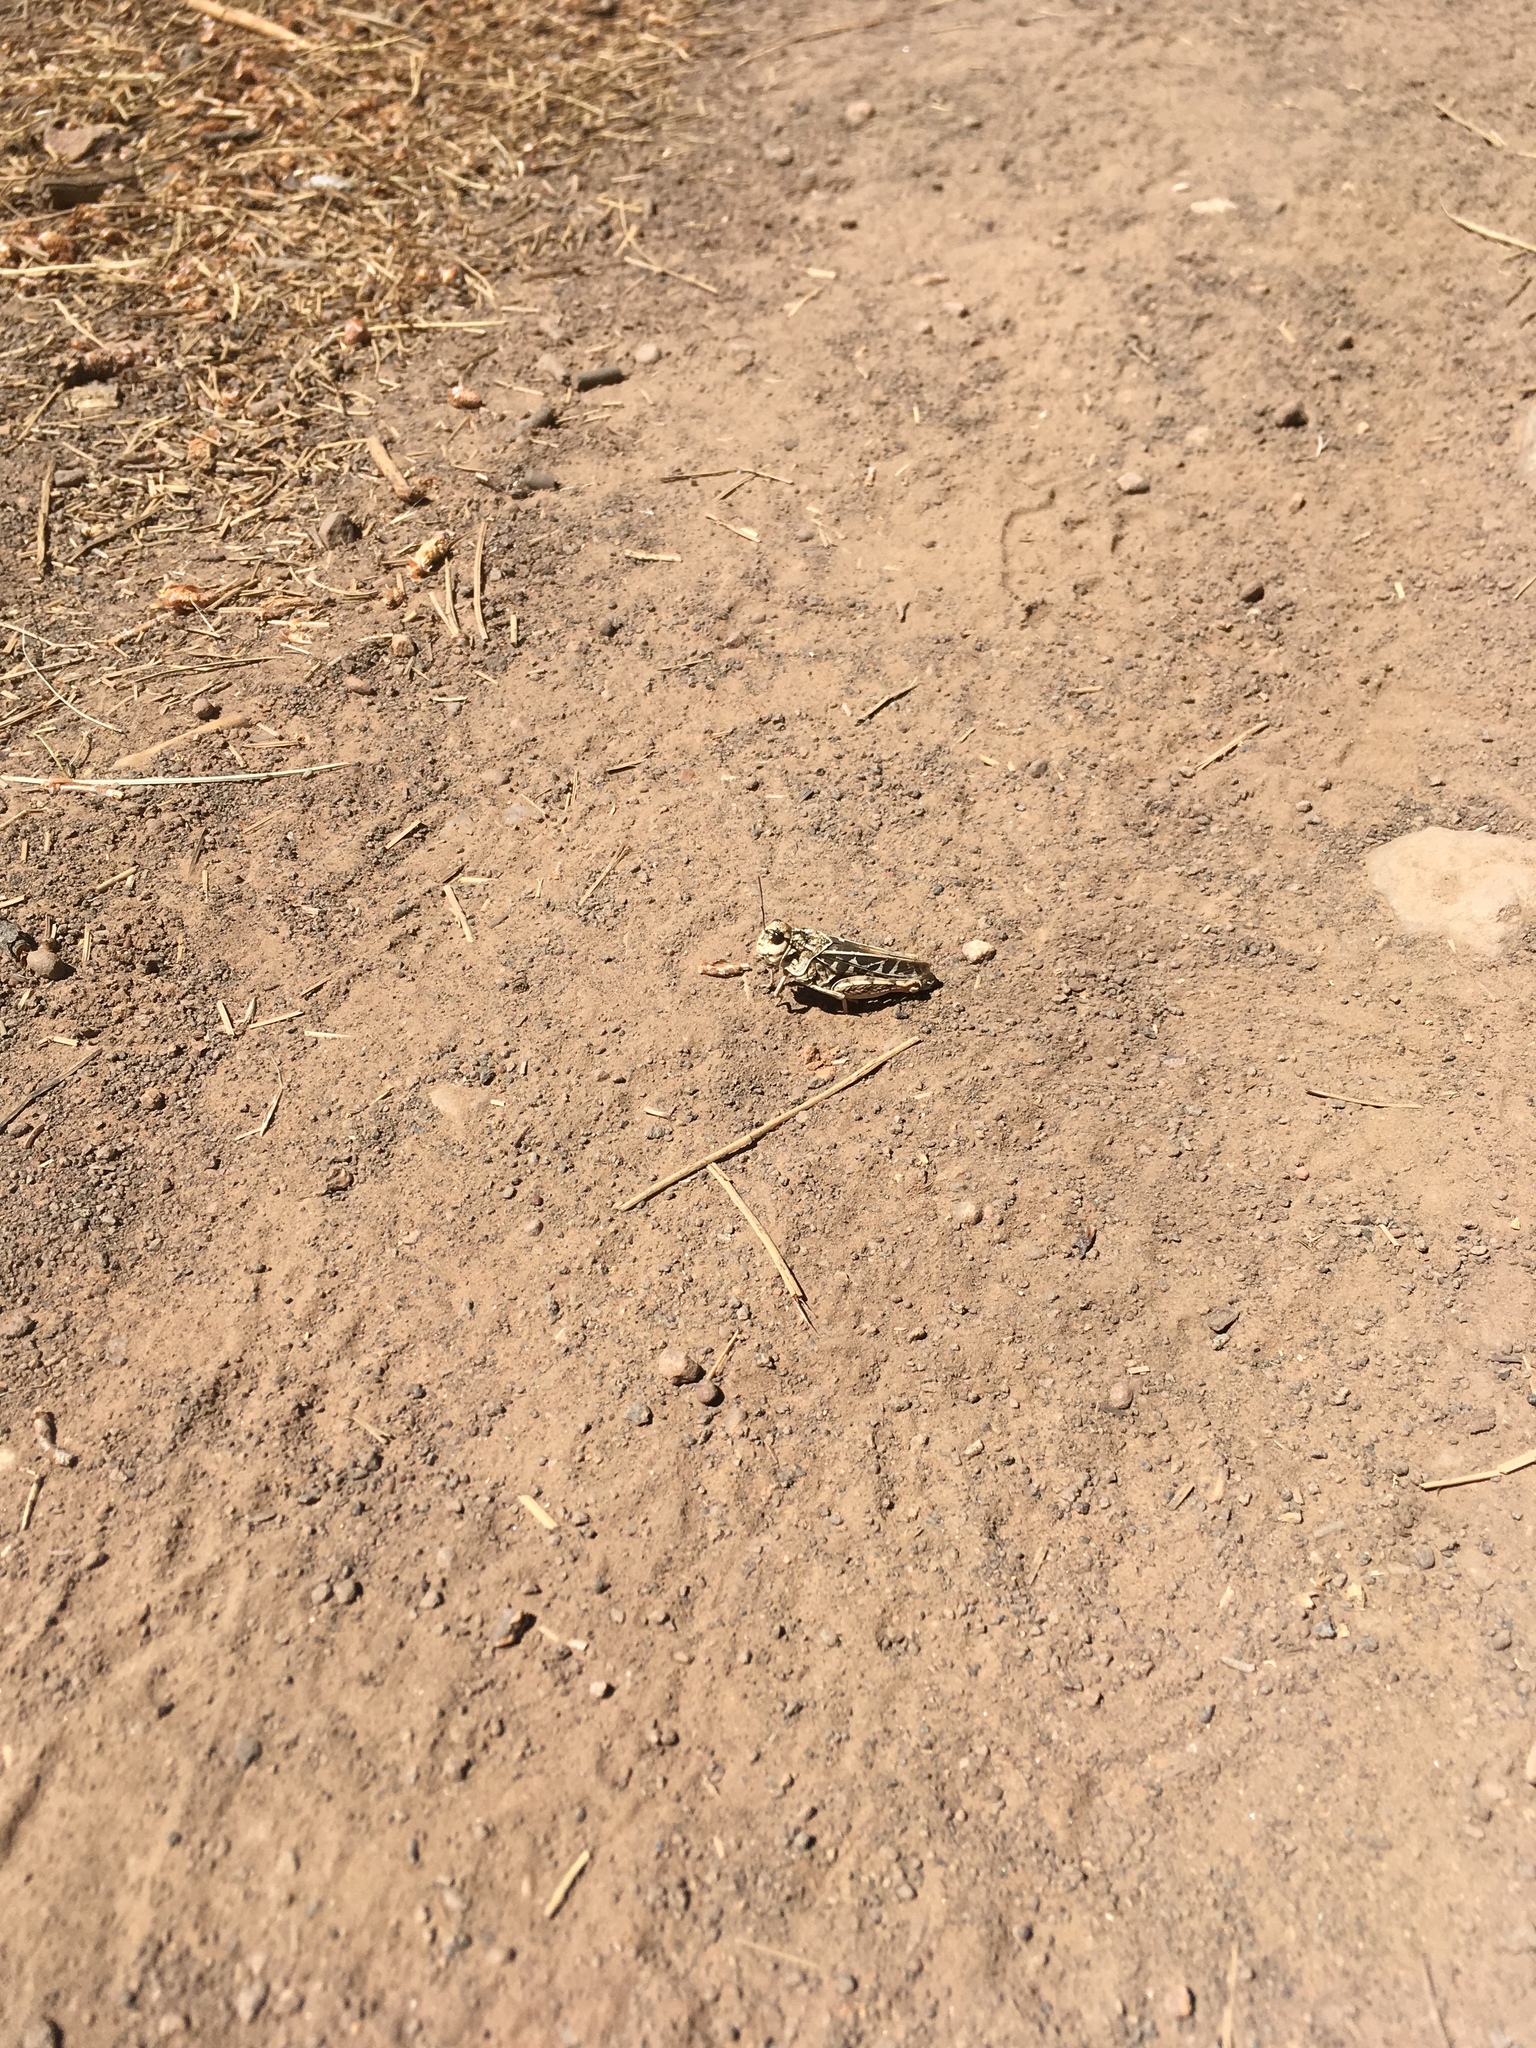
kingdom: Animalia
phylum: Arthropoda
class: Insecta
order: Orthoptera
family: Acrididae
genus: Xanthippus
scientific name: Xanthippus corallipes
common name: Redshanked grasshopper
